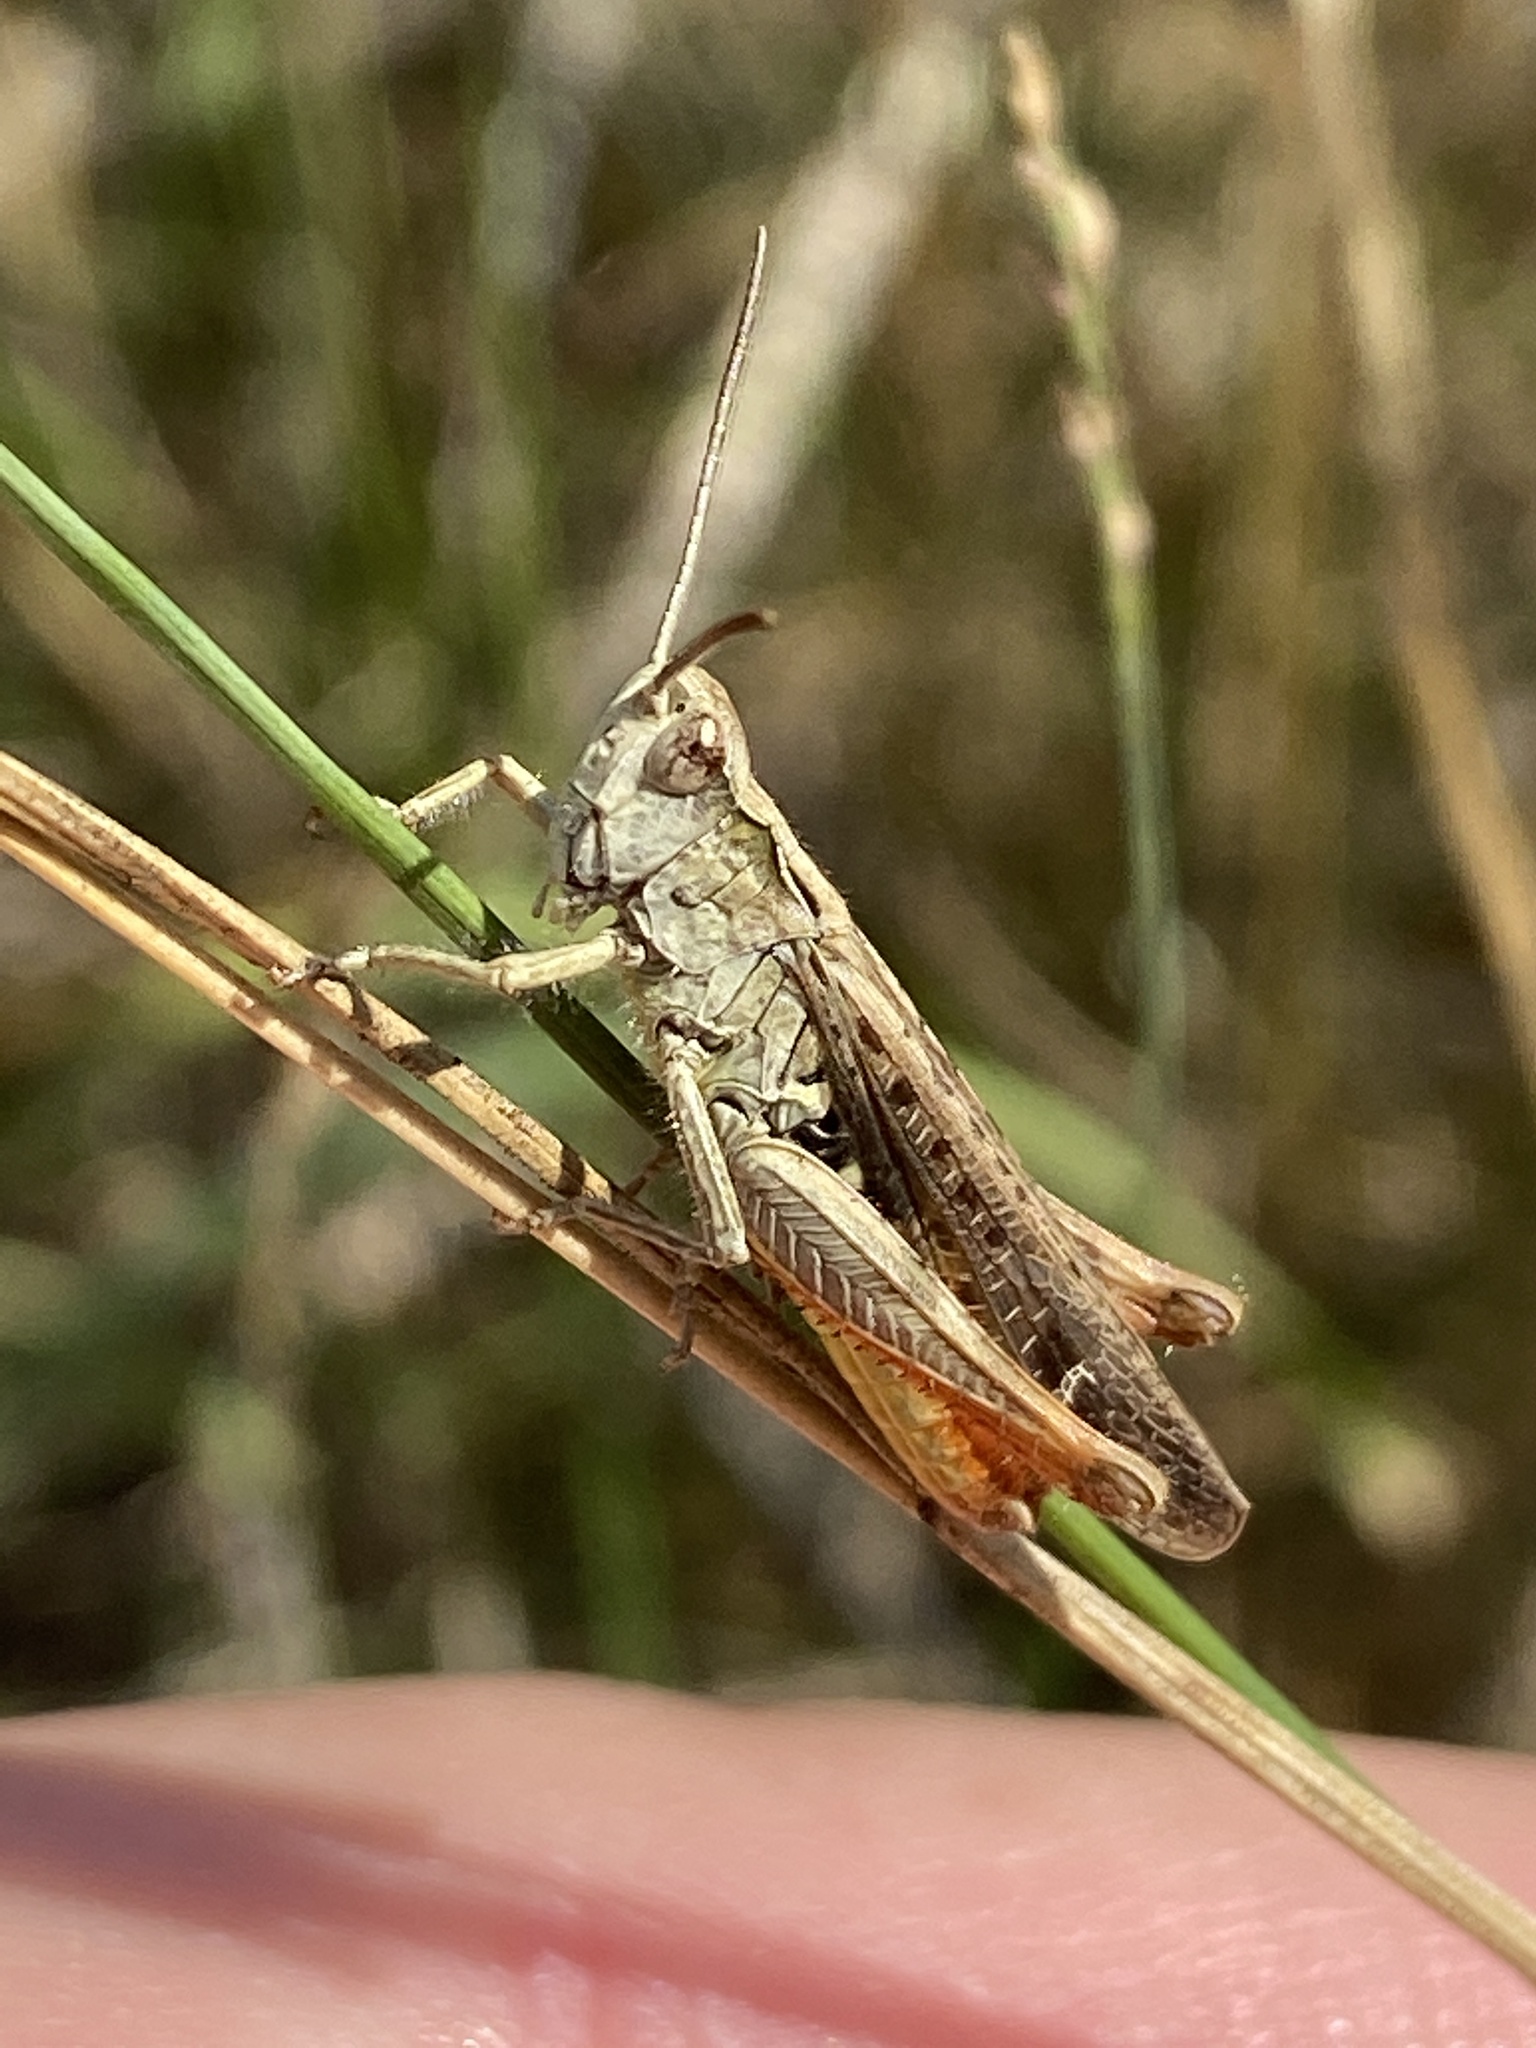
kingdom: Animalia
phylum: Arthropoda
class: Insecta
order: Orthoptera
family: Acrididae
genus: Chorthippus
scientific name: Chorthippus brunneus
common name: Field grasshopper
